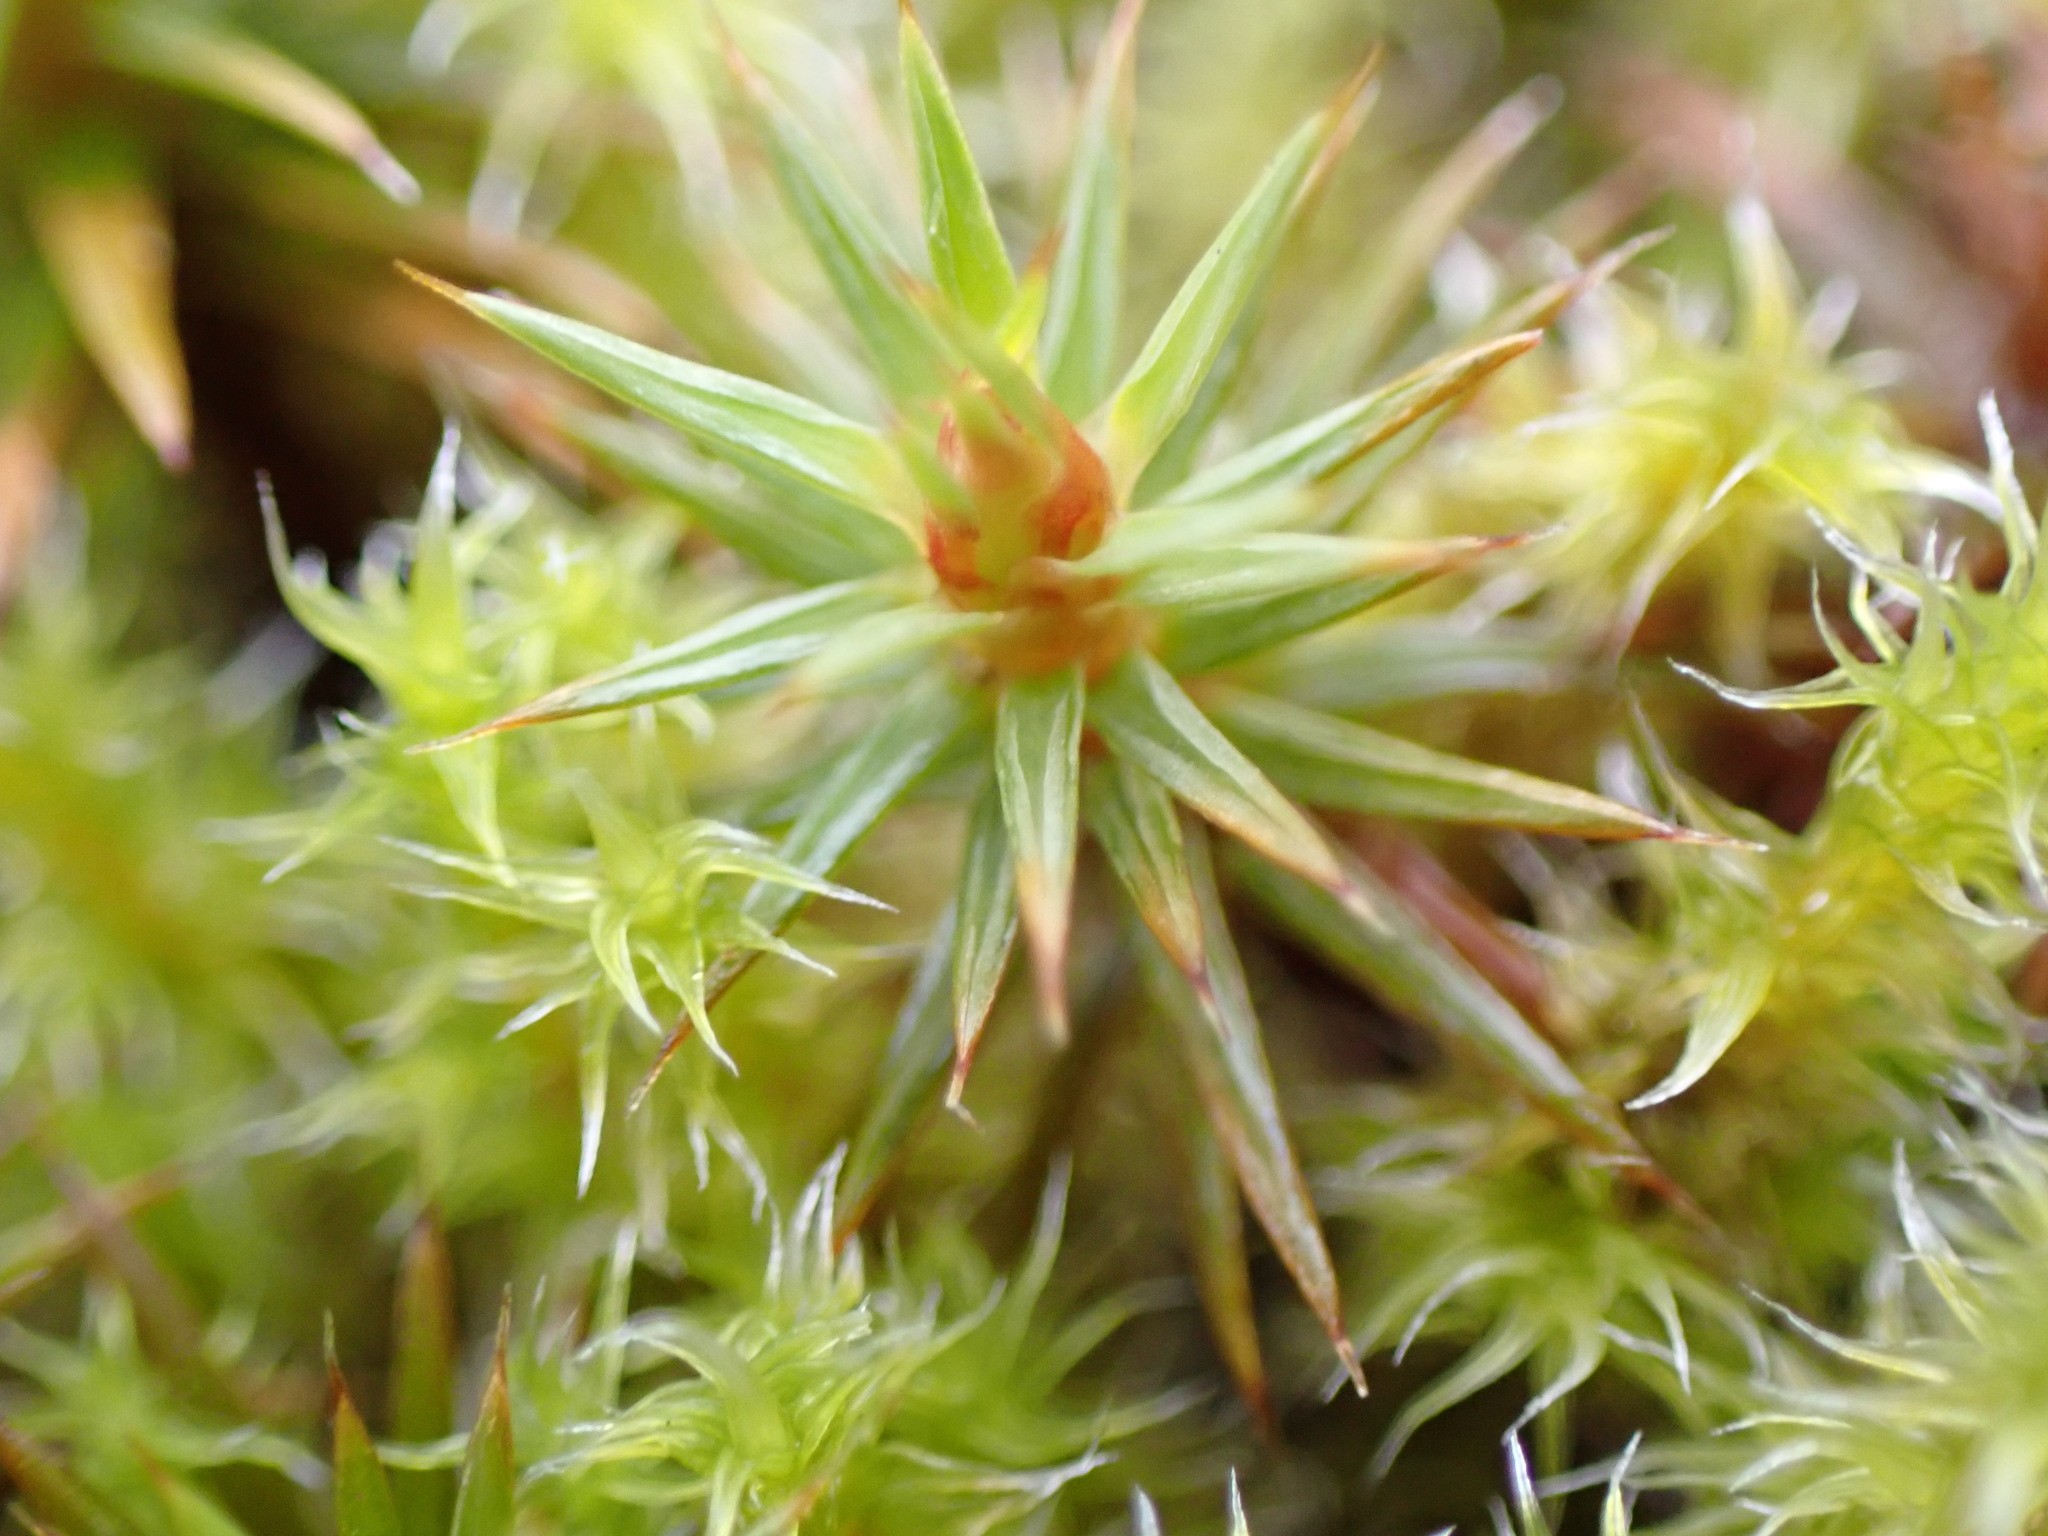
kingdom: Plantae
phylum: Bryophyta
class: Polytrichopsida
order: Polytrichales
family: Polytrichaceae
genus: Polytrichum
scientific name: Polytrichum juniperinum
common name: Juniper haircap moss
